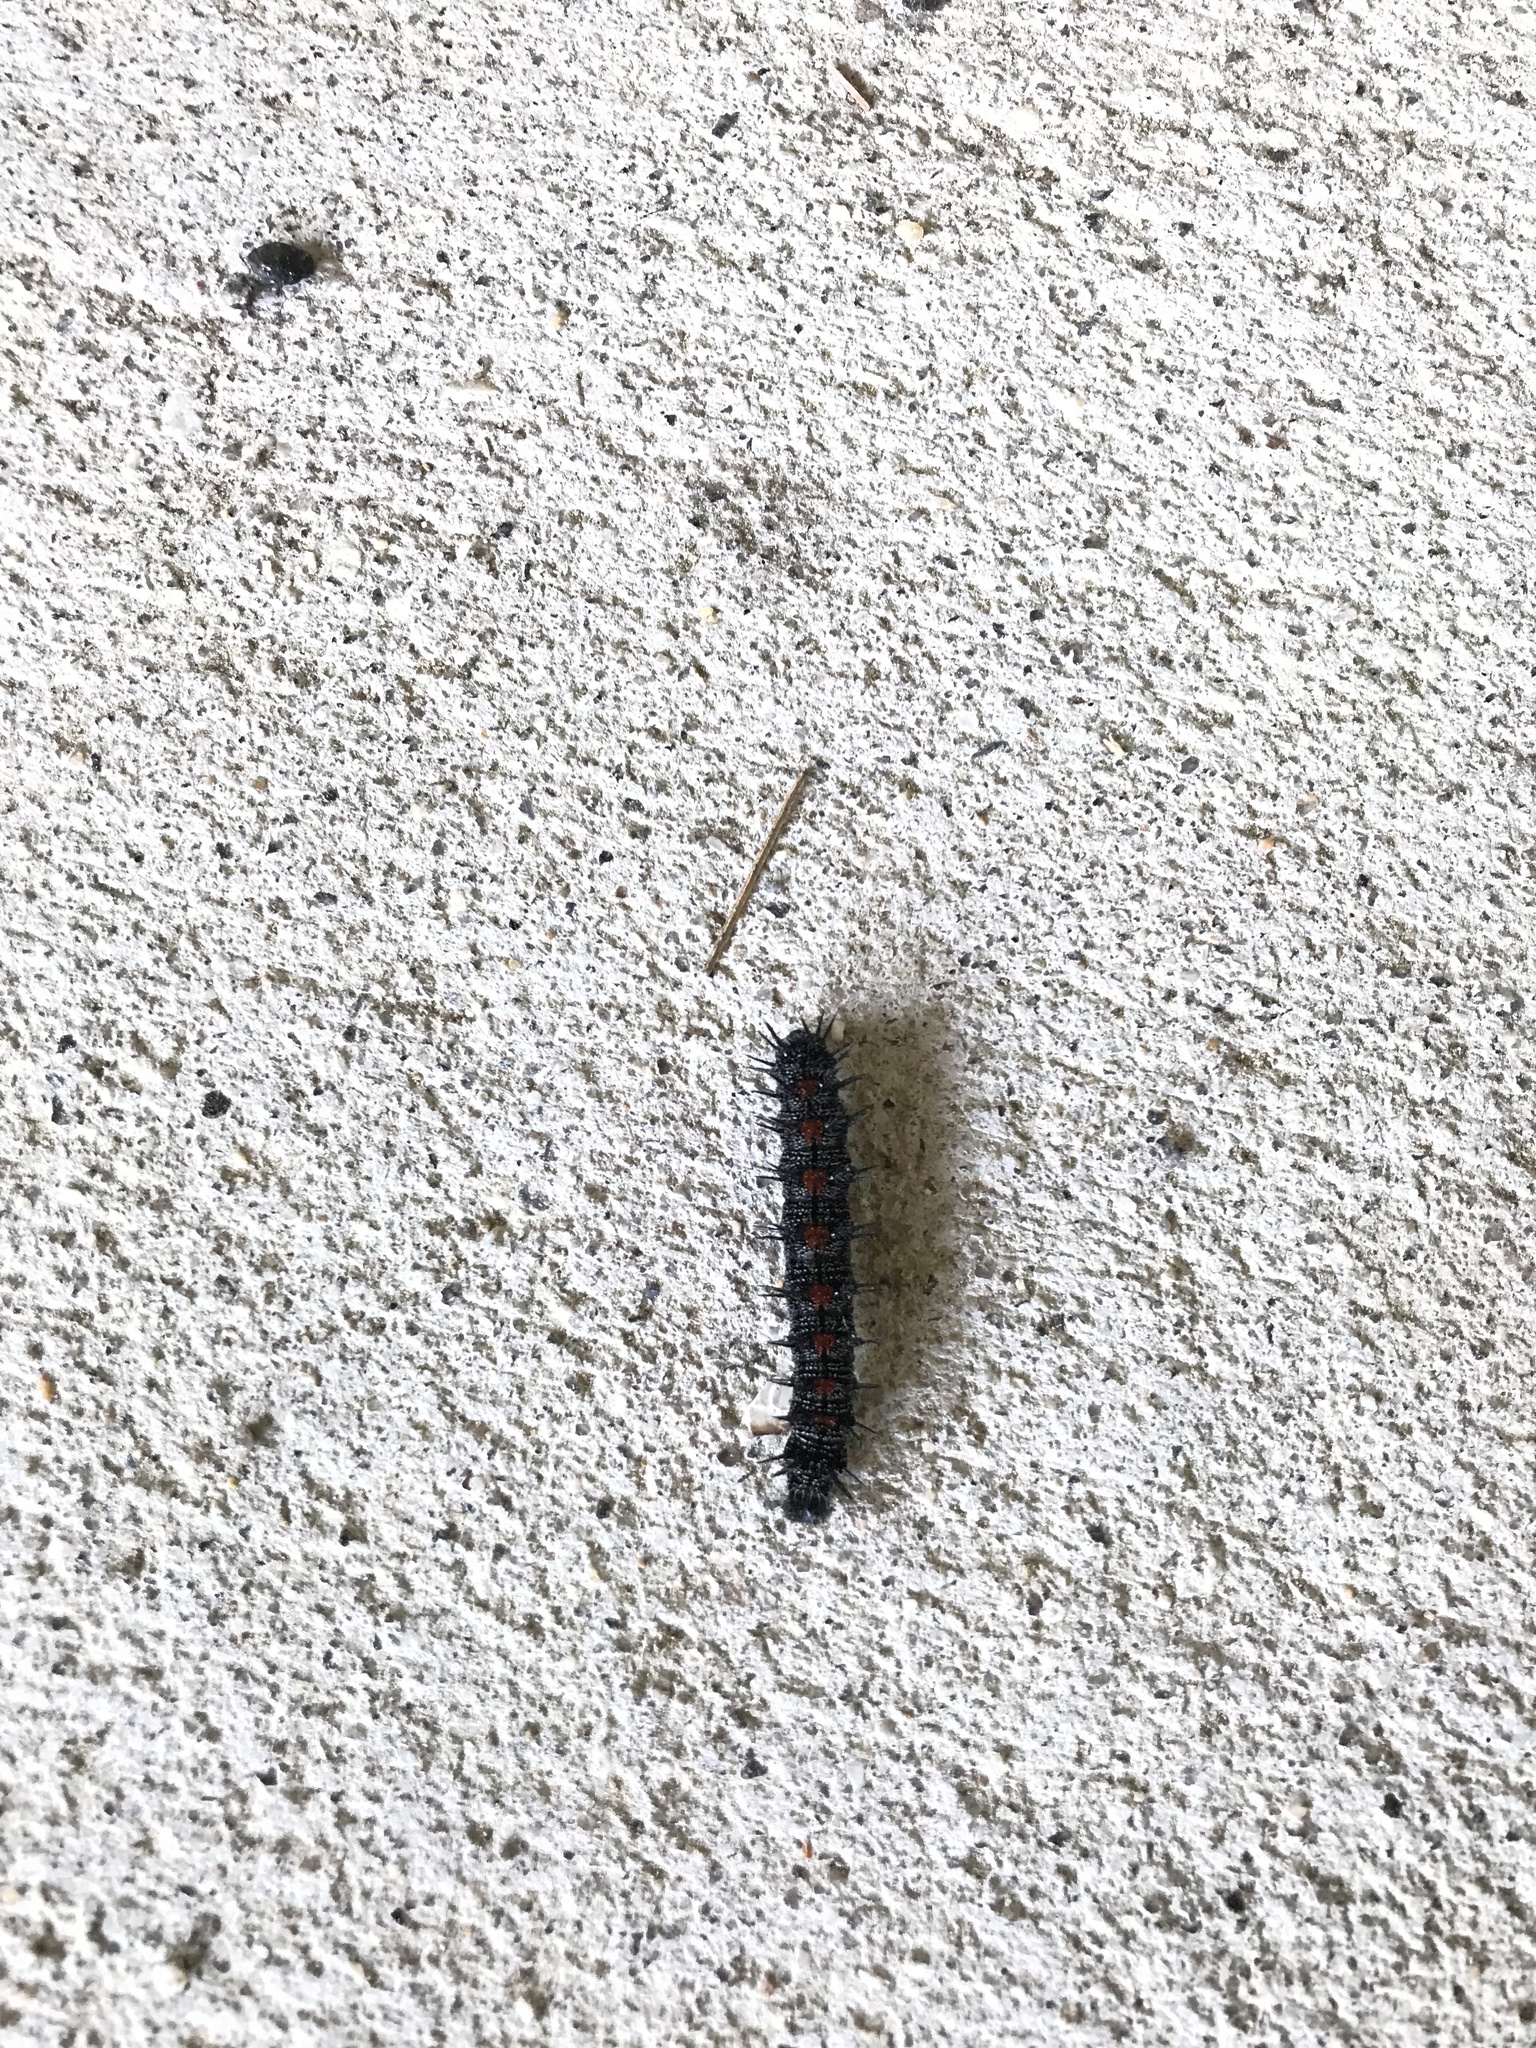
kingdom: Animalia
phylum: Arthropoda
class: Insecta
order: Lepidoptera
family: Nymphalidae
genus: Nymphalis
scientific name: Nymphalis antiopa
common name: Camberwell beauty
